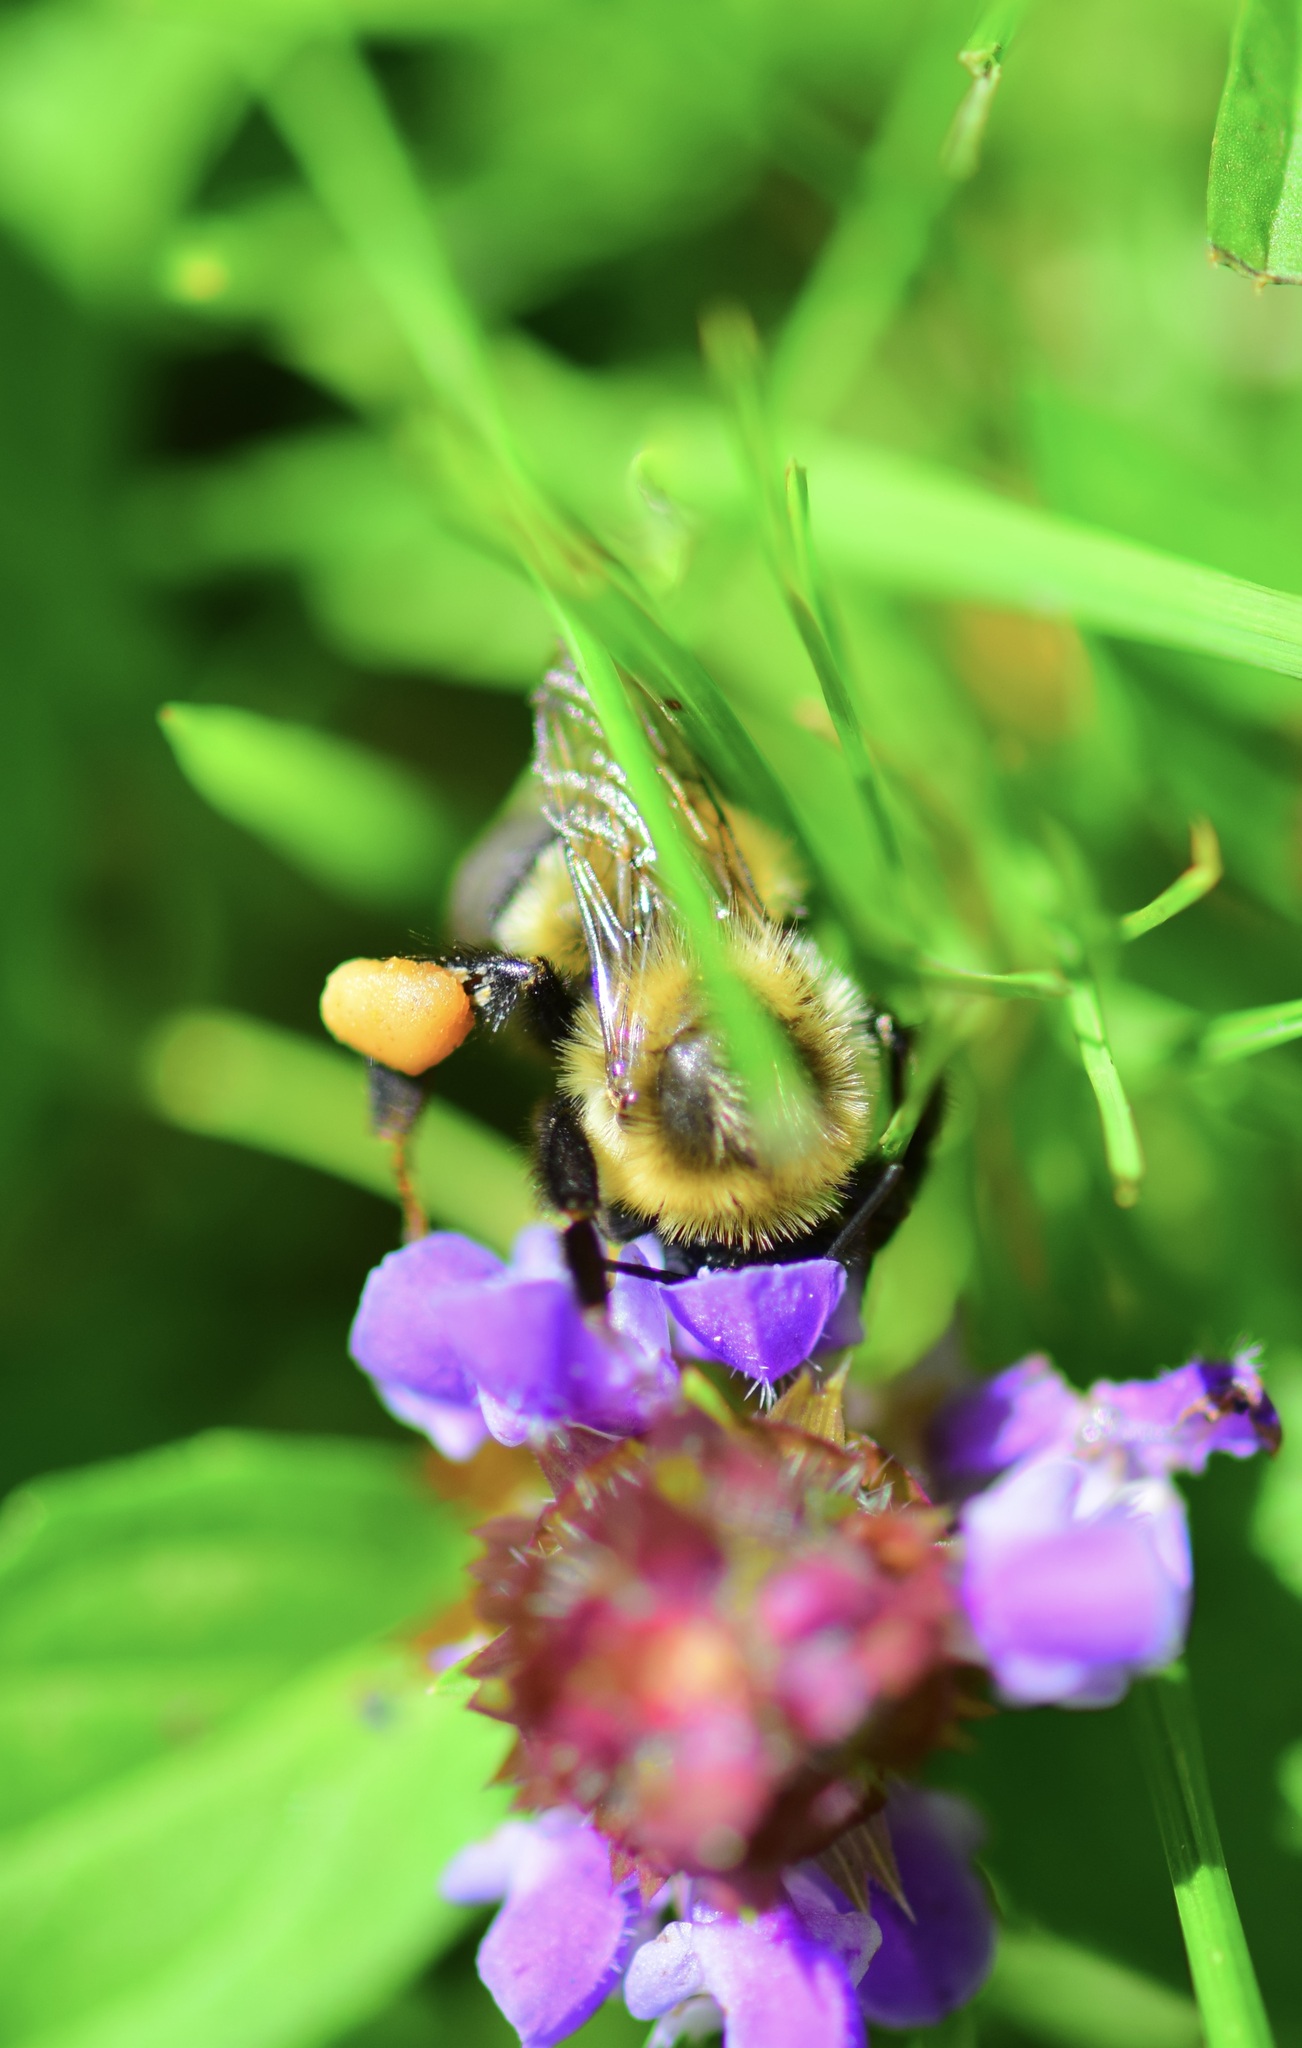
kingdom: Animalia
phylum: Arthropoda
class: Insecta
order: Hymenoptera
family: Apidae
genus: Bombus
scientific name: Bombus impatiens
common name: Common eastern bumble bee
